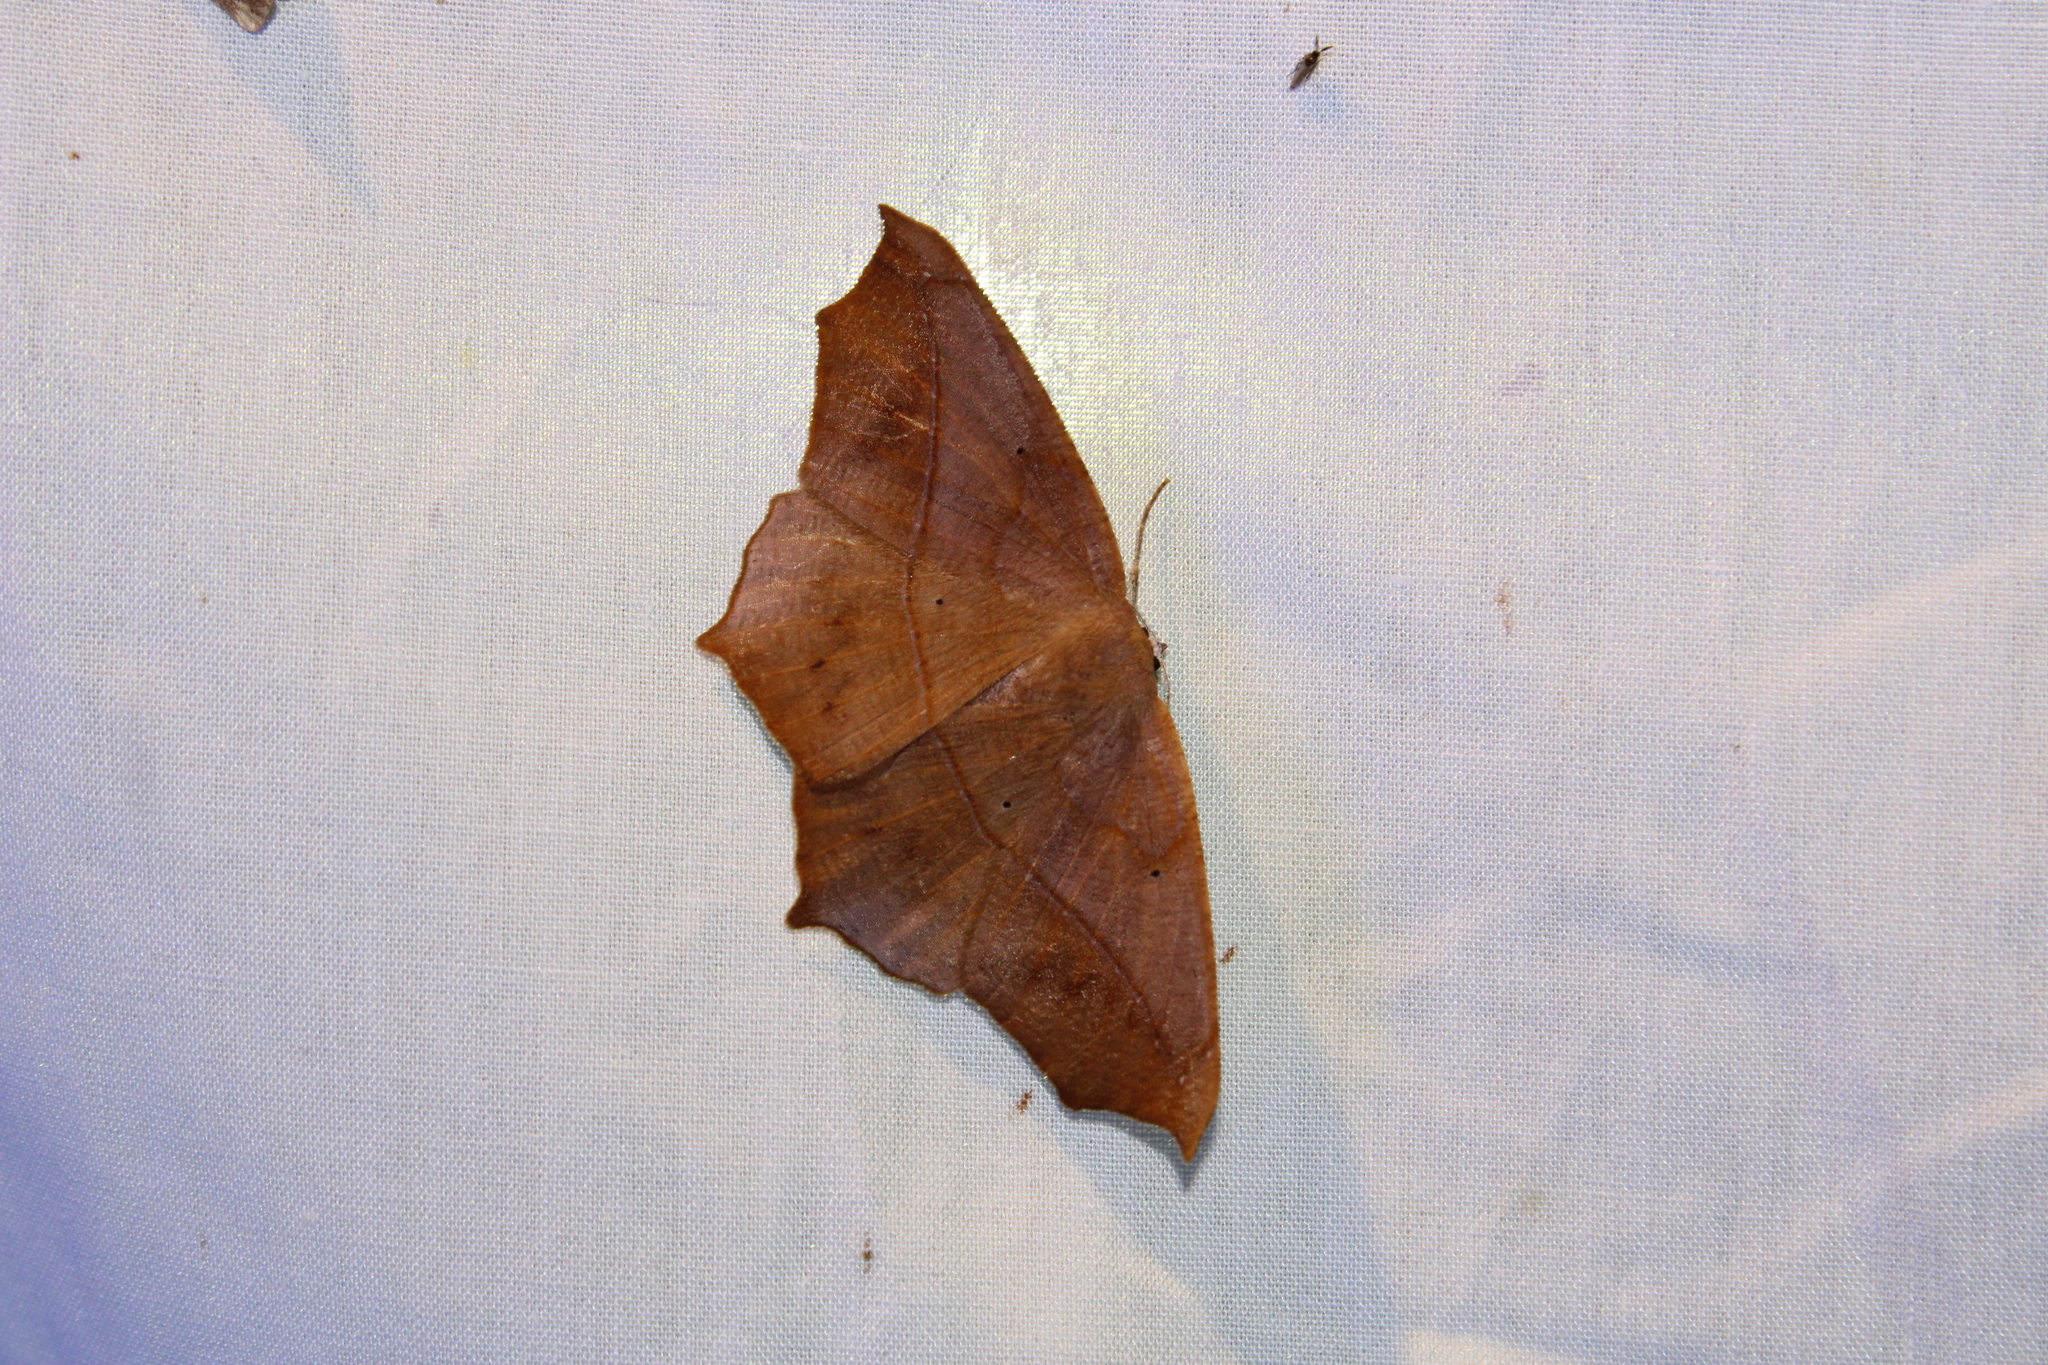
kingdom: Animalia
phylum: Arthropoda
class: Insecta
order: Lepidoptera
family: Geometridae
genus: Prochoerodes
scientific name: Prochoerodes lineola
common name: Large maple spanworm
